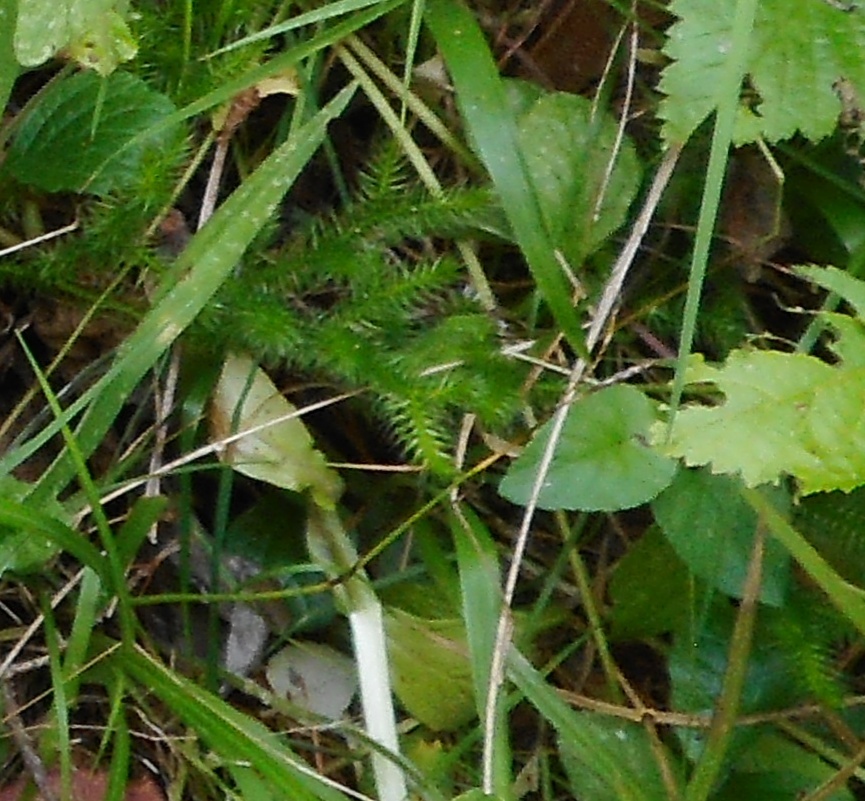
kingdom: Plantae
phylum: Tracheophyta
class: Lycopodiopsida
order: Lycopodiales
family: Lycopodiaceae
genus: Lycopodium
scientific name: Lycopodium clavatum
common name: Stag's-horn clubmoss
